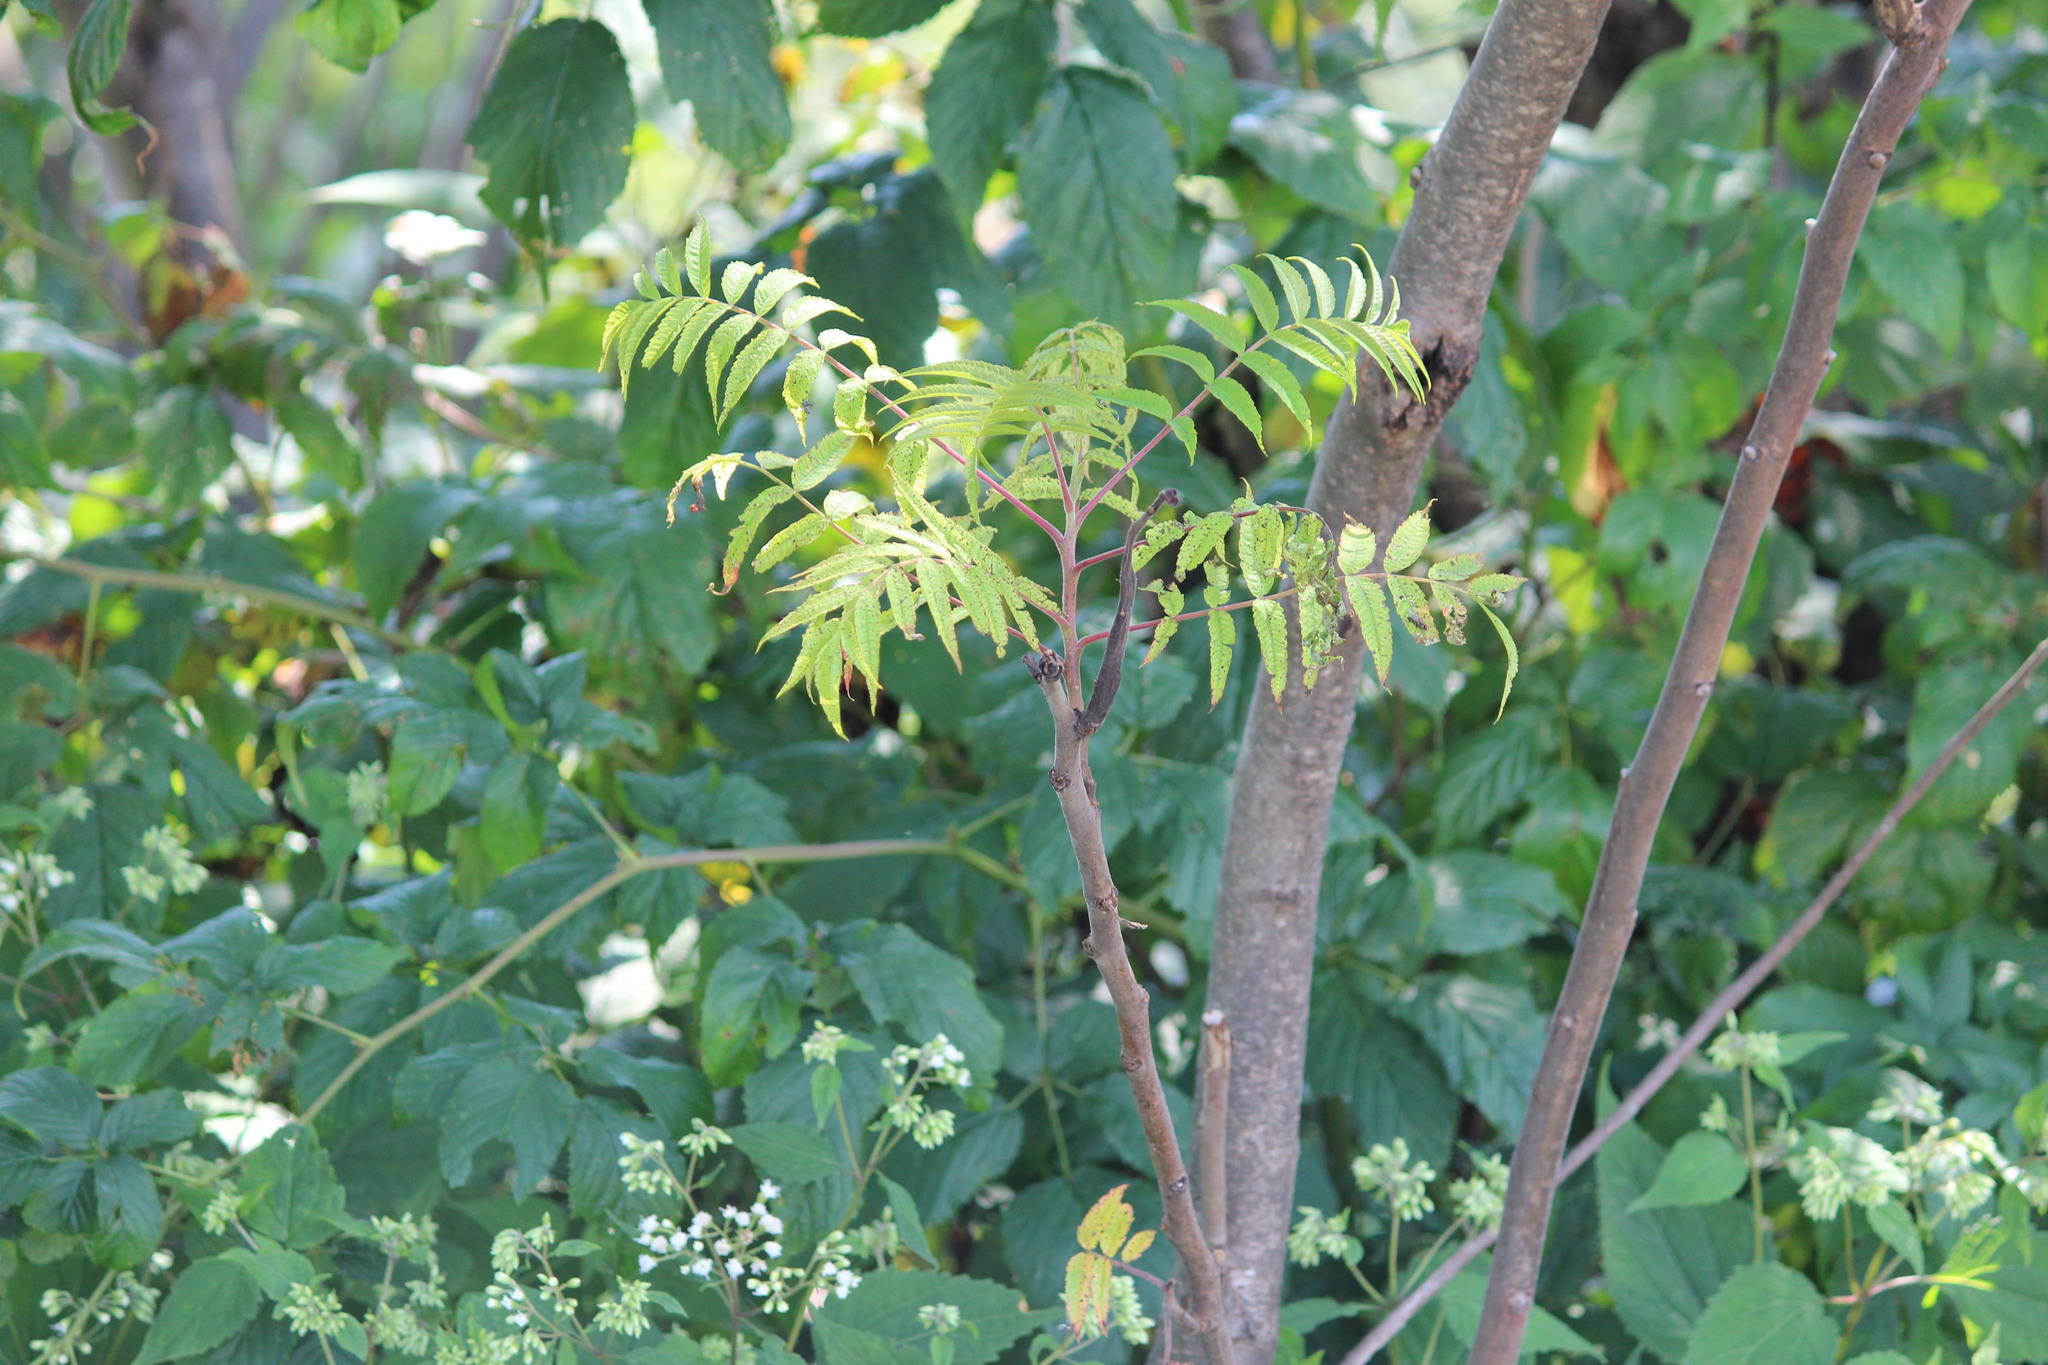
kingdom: Plantae
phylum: Tracheophyta
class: Magnoliopsida
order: Sapindales
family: Anacardiaceae
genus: Rhus
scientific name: Rhus typhina
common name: Staghorn sumac
